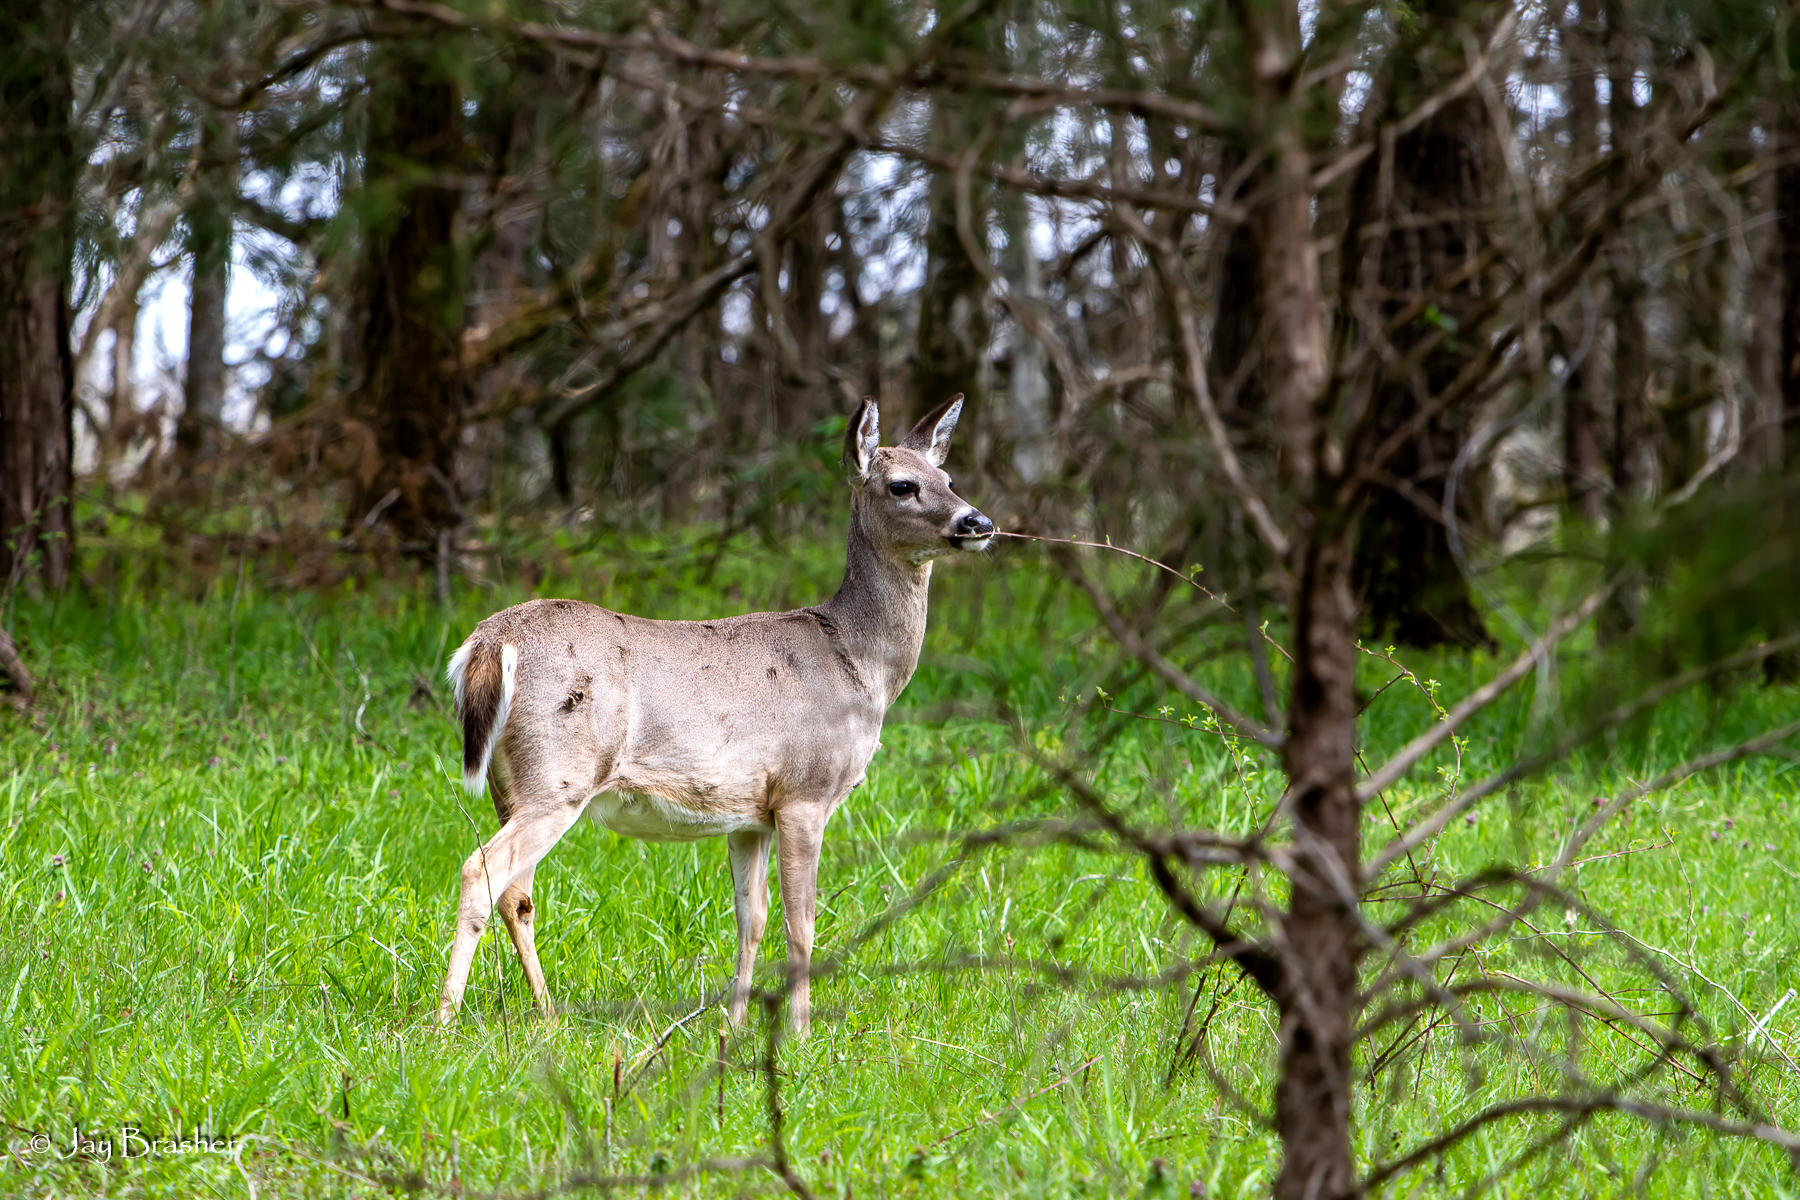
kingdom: Animalia
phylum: Chordata
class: Mammalia
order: Artiodactyla
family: Cervidae
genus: Odocoileus
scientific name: Odocoileus virginianus
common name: White-tailed deer
